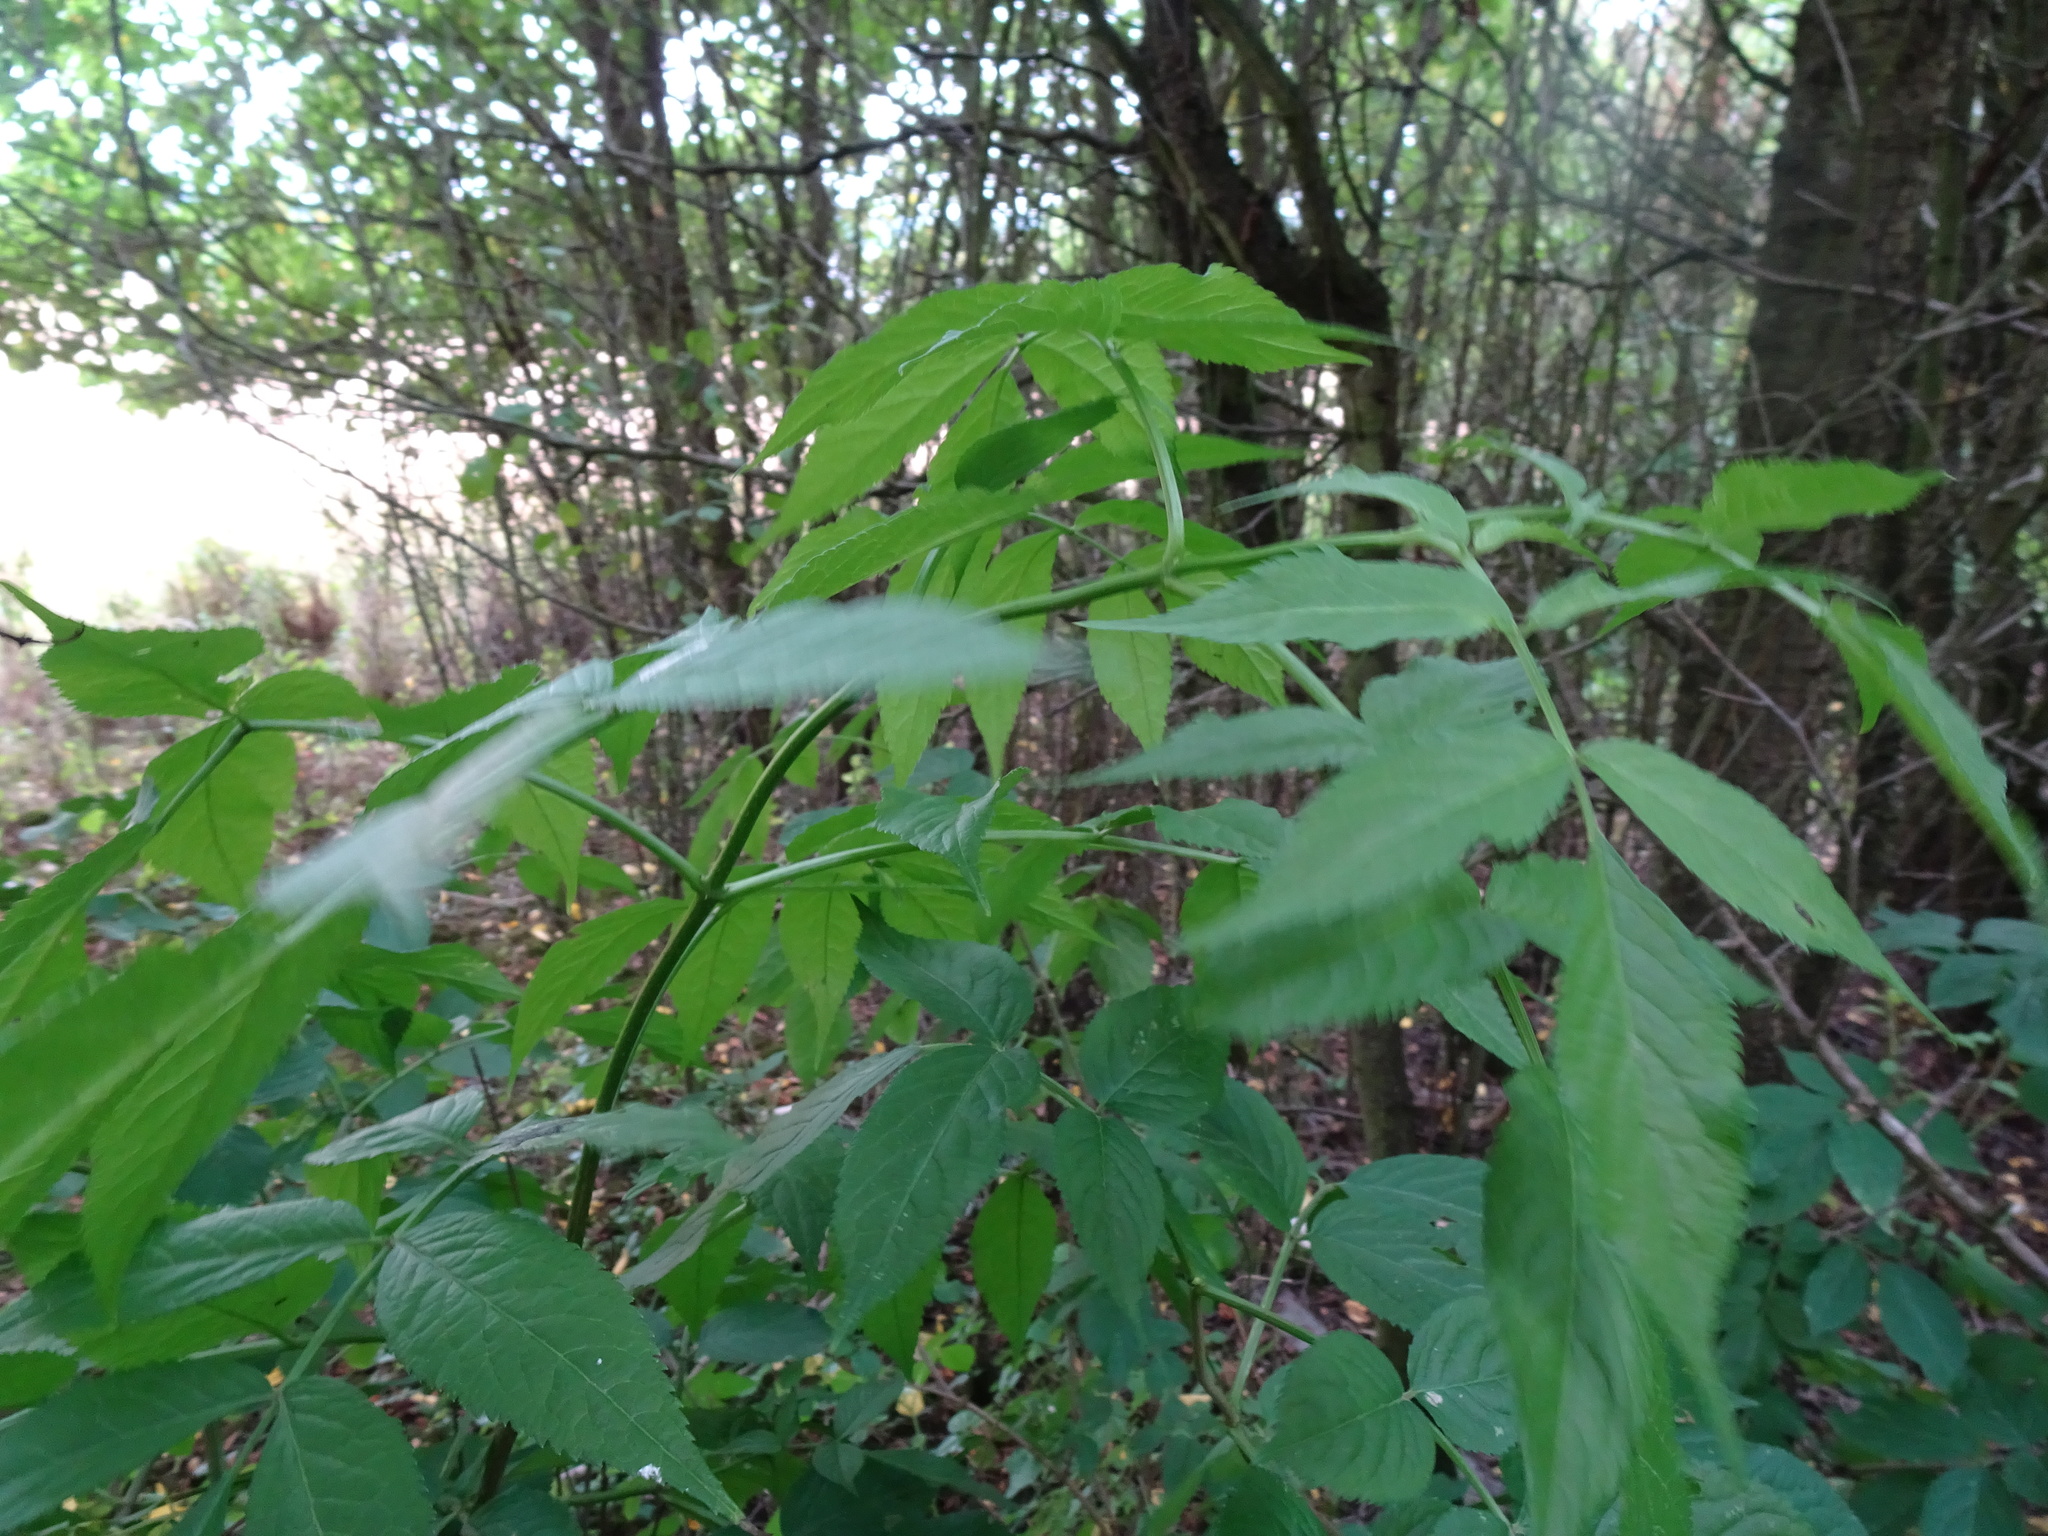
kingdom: Plantae
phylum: Tracheophyta
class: Magnoliopsida
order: Dipsacales
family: Viburnaceae
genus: Sambucus
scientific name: Sambucus nigra
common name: Elder
